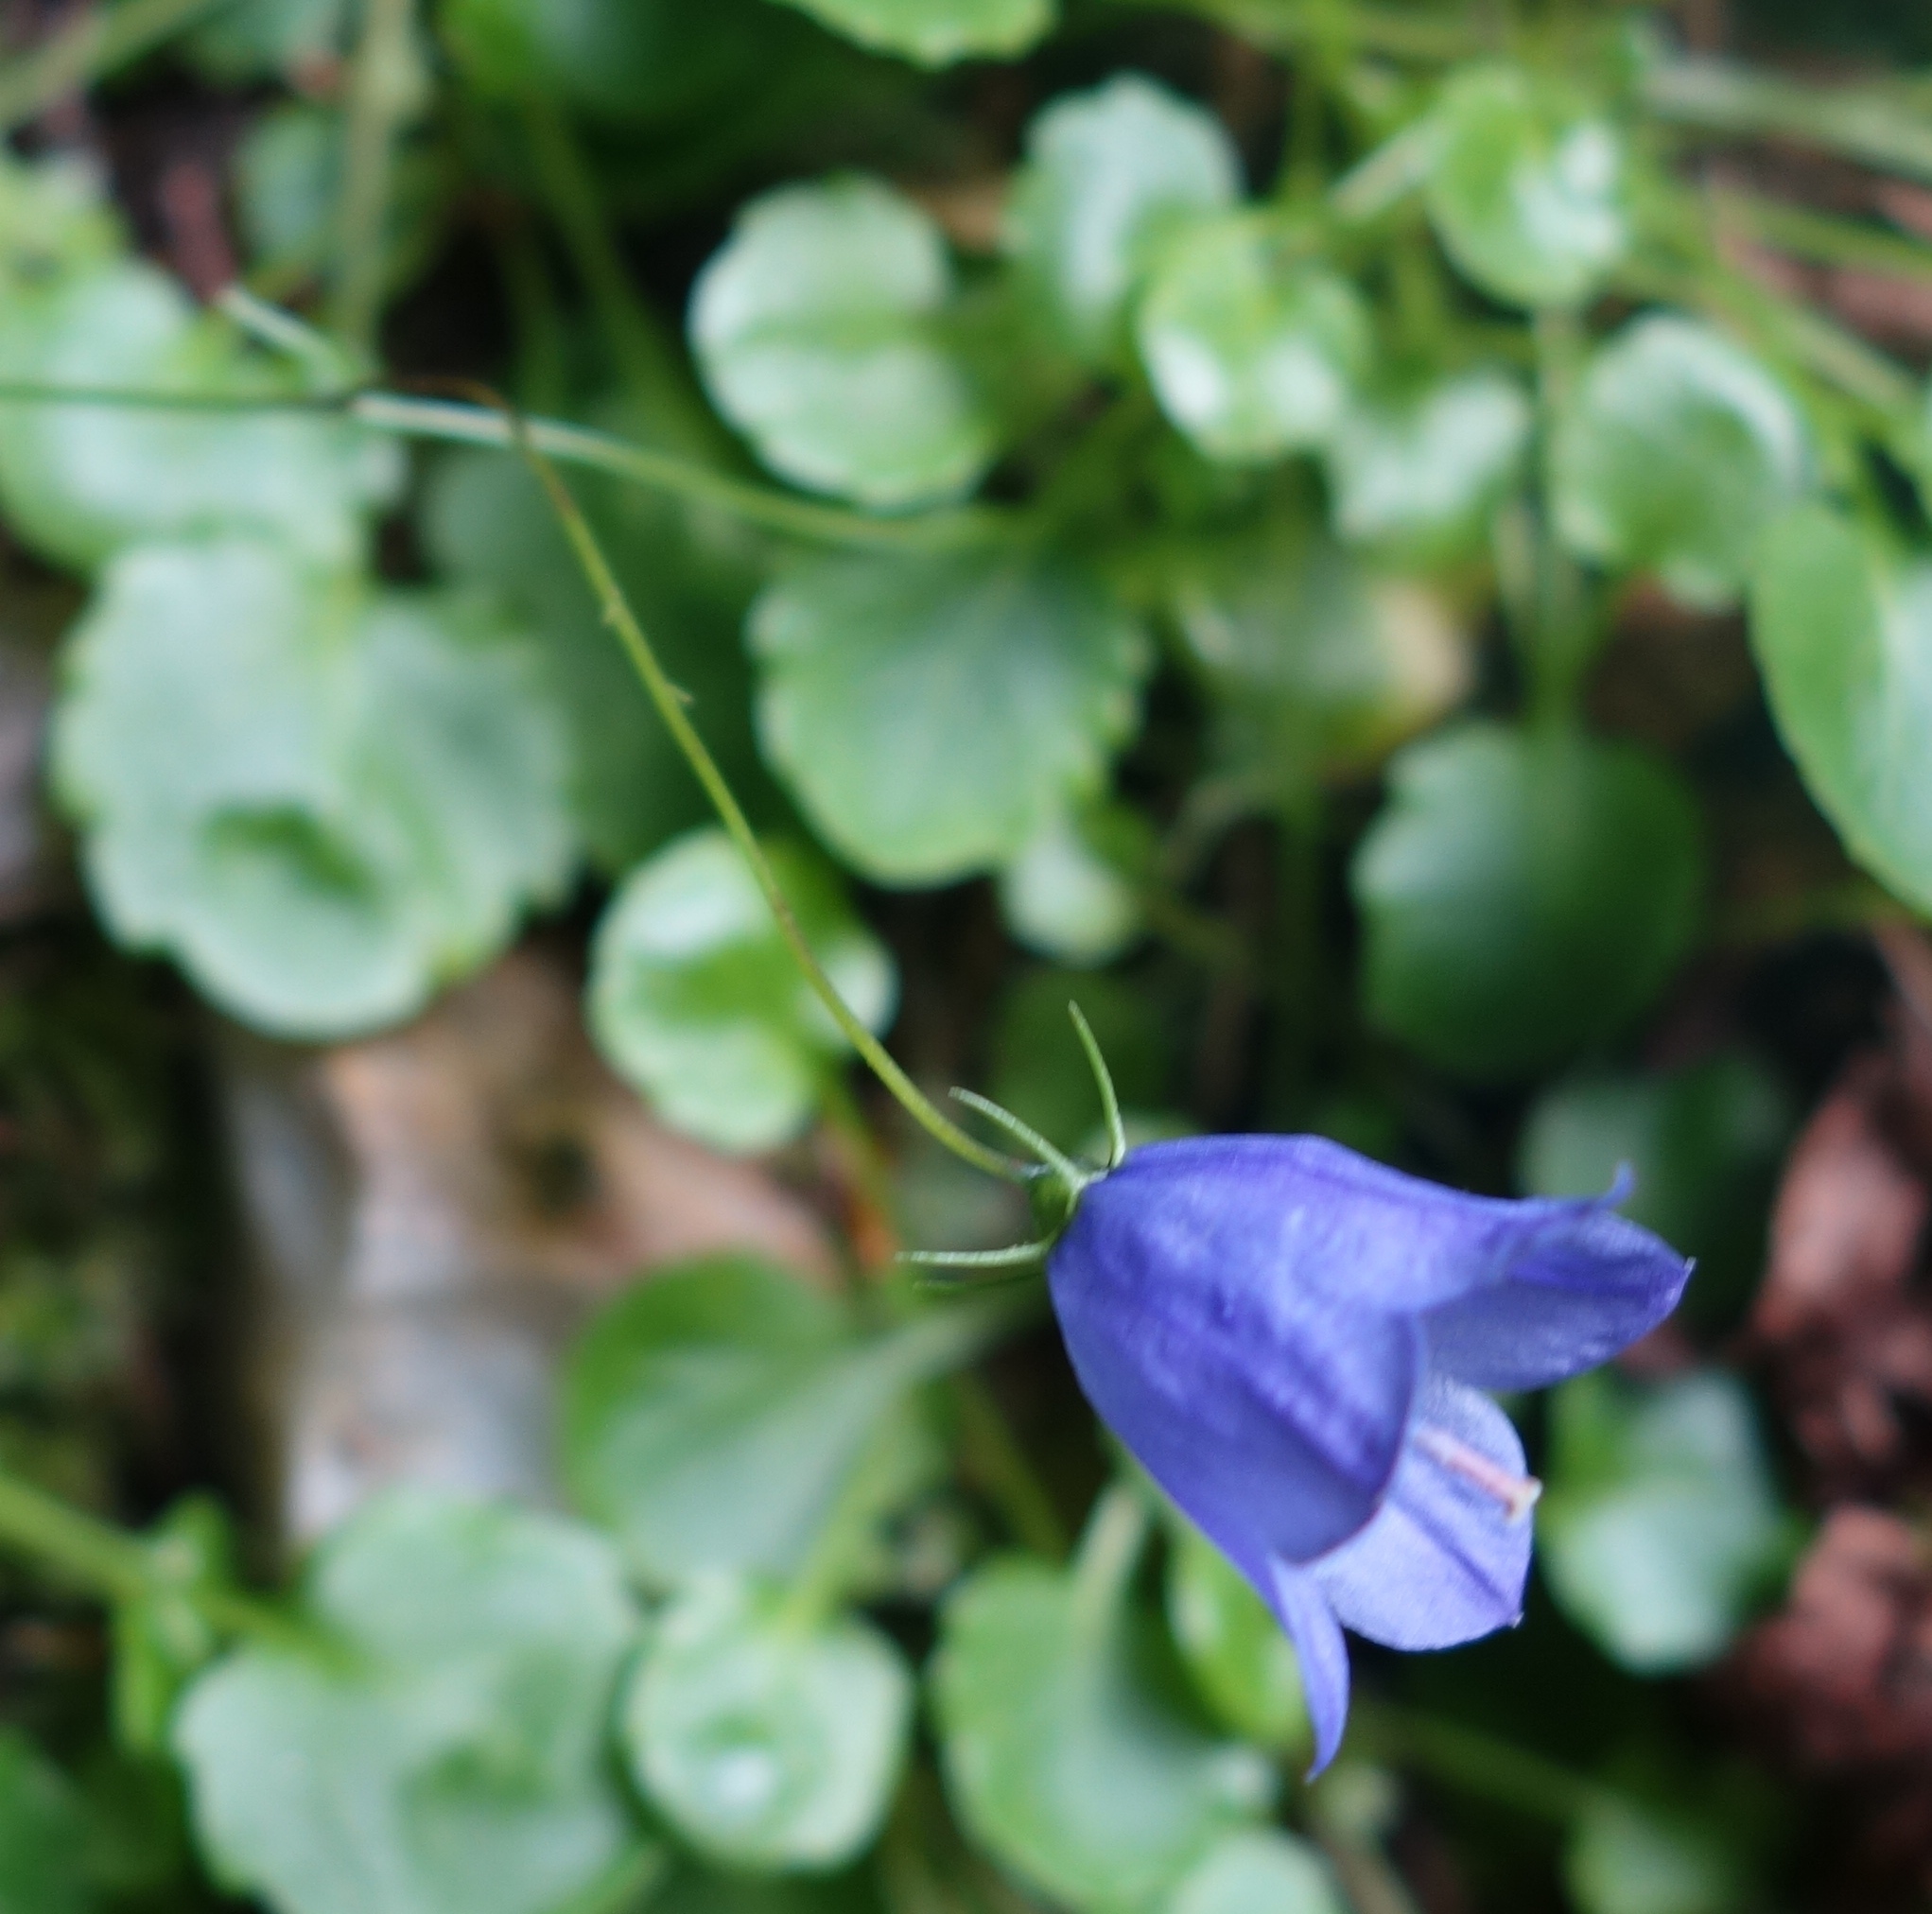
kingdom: Plantae
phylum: Tracheophyta
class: Magnoliopsida
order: Asterales
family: Campanulaceae
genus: Campanula
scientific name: Campanula cochleariifolia
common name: Fairies'-thimbles
